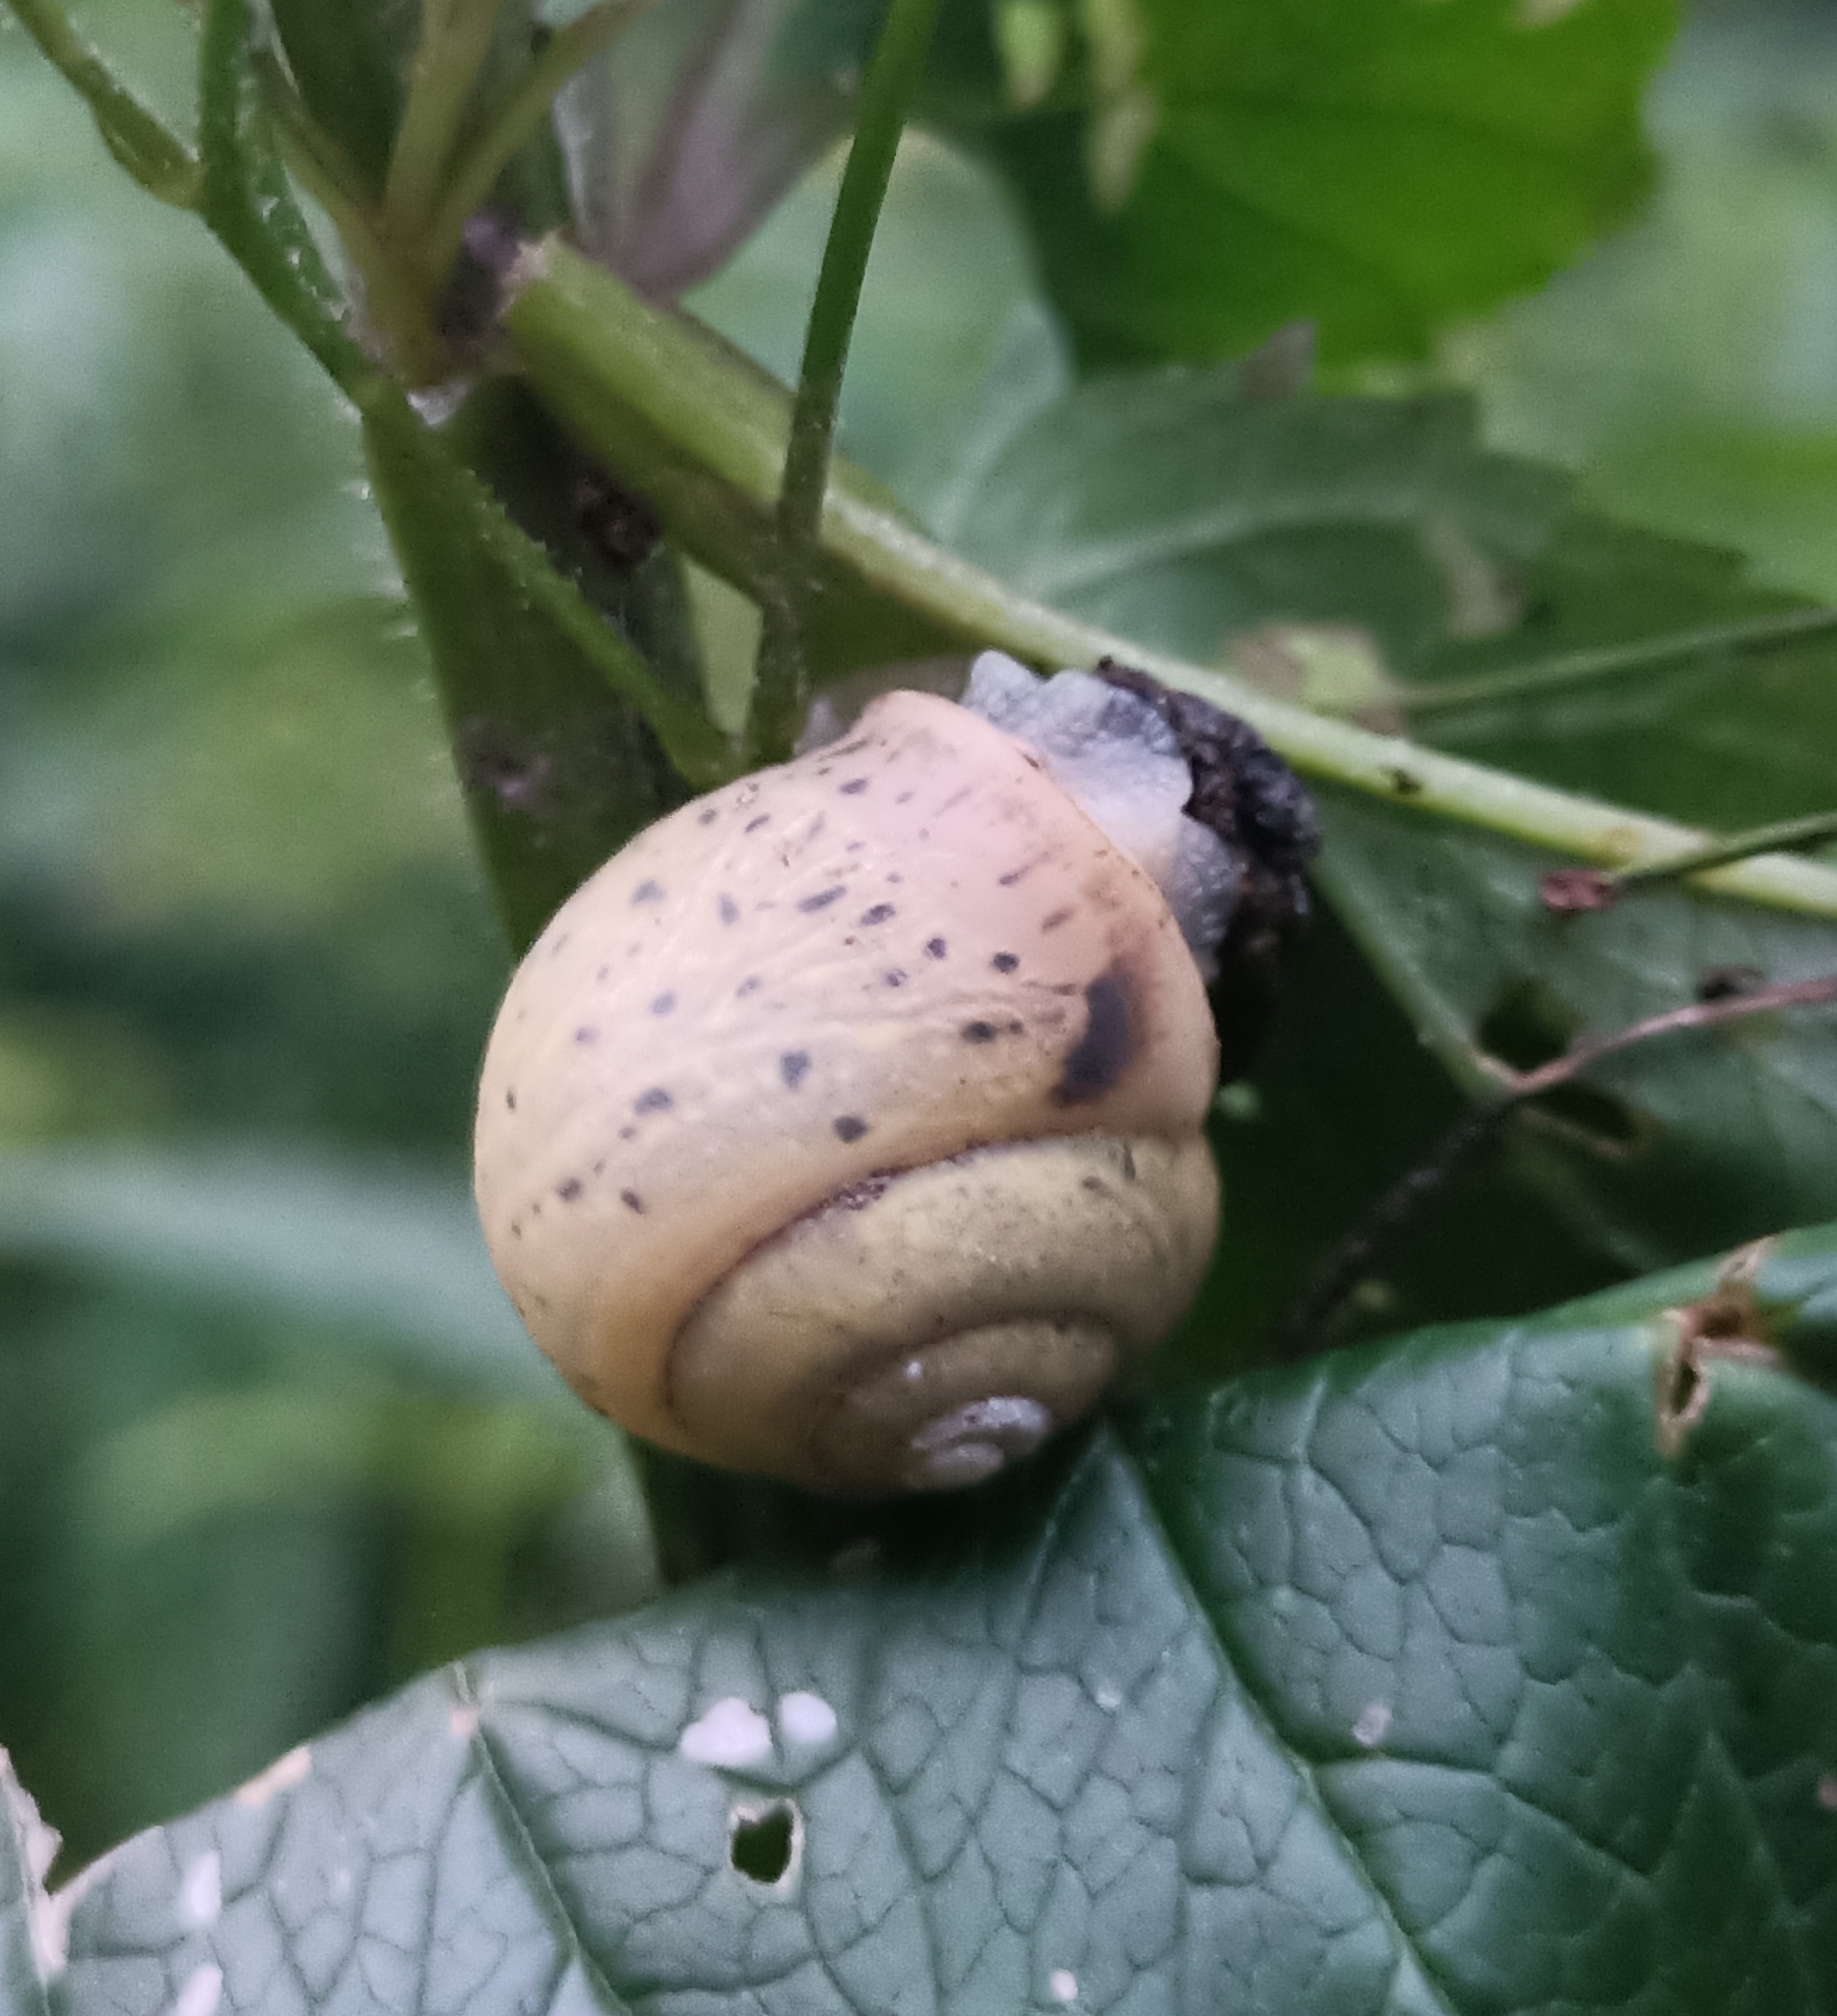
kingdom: Animalia
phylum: Mollusca
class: Gastropoda
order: Stylommatophora
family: Camaenidae
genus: Fruticicola
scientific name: Fruticicola fruticum
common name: Bush snail
